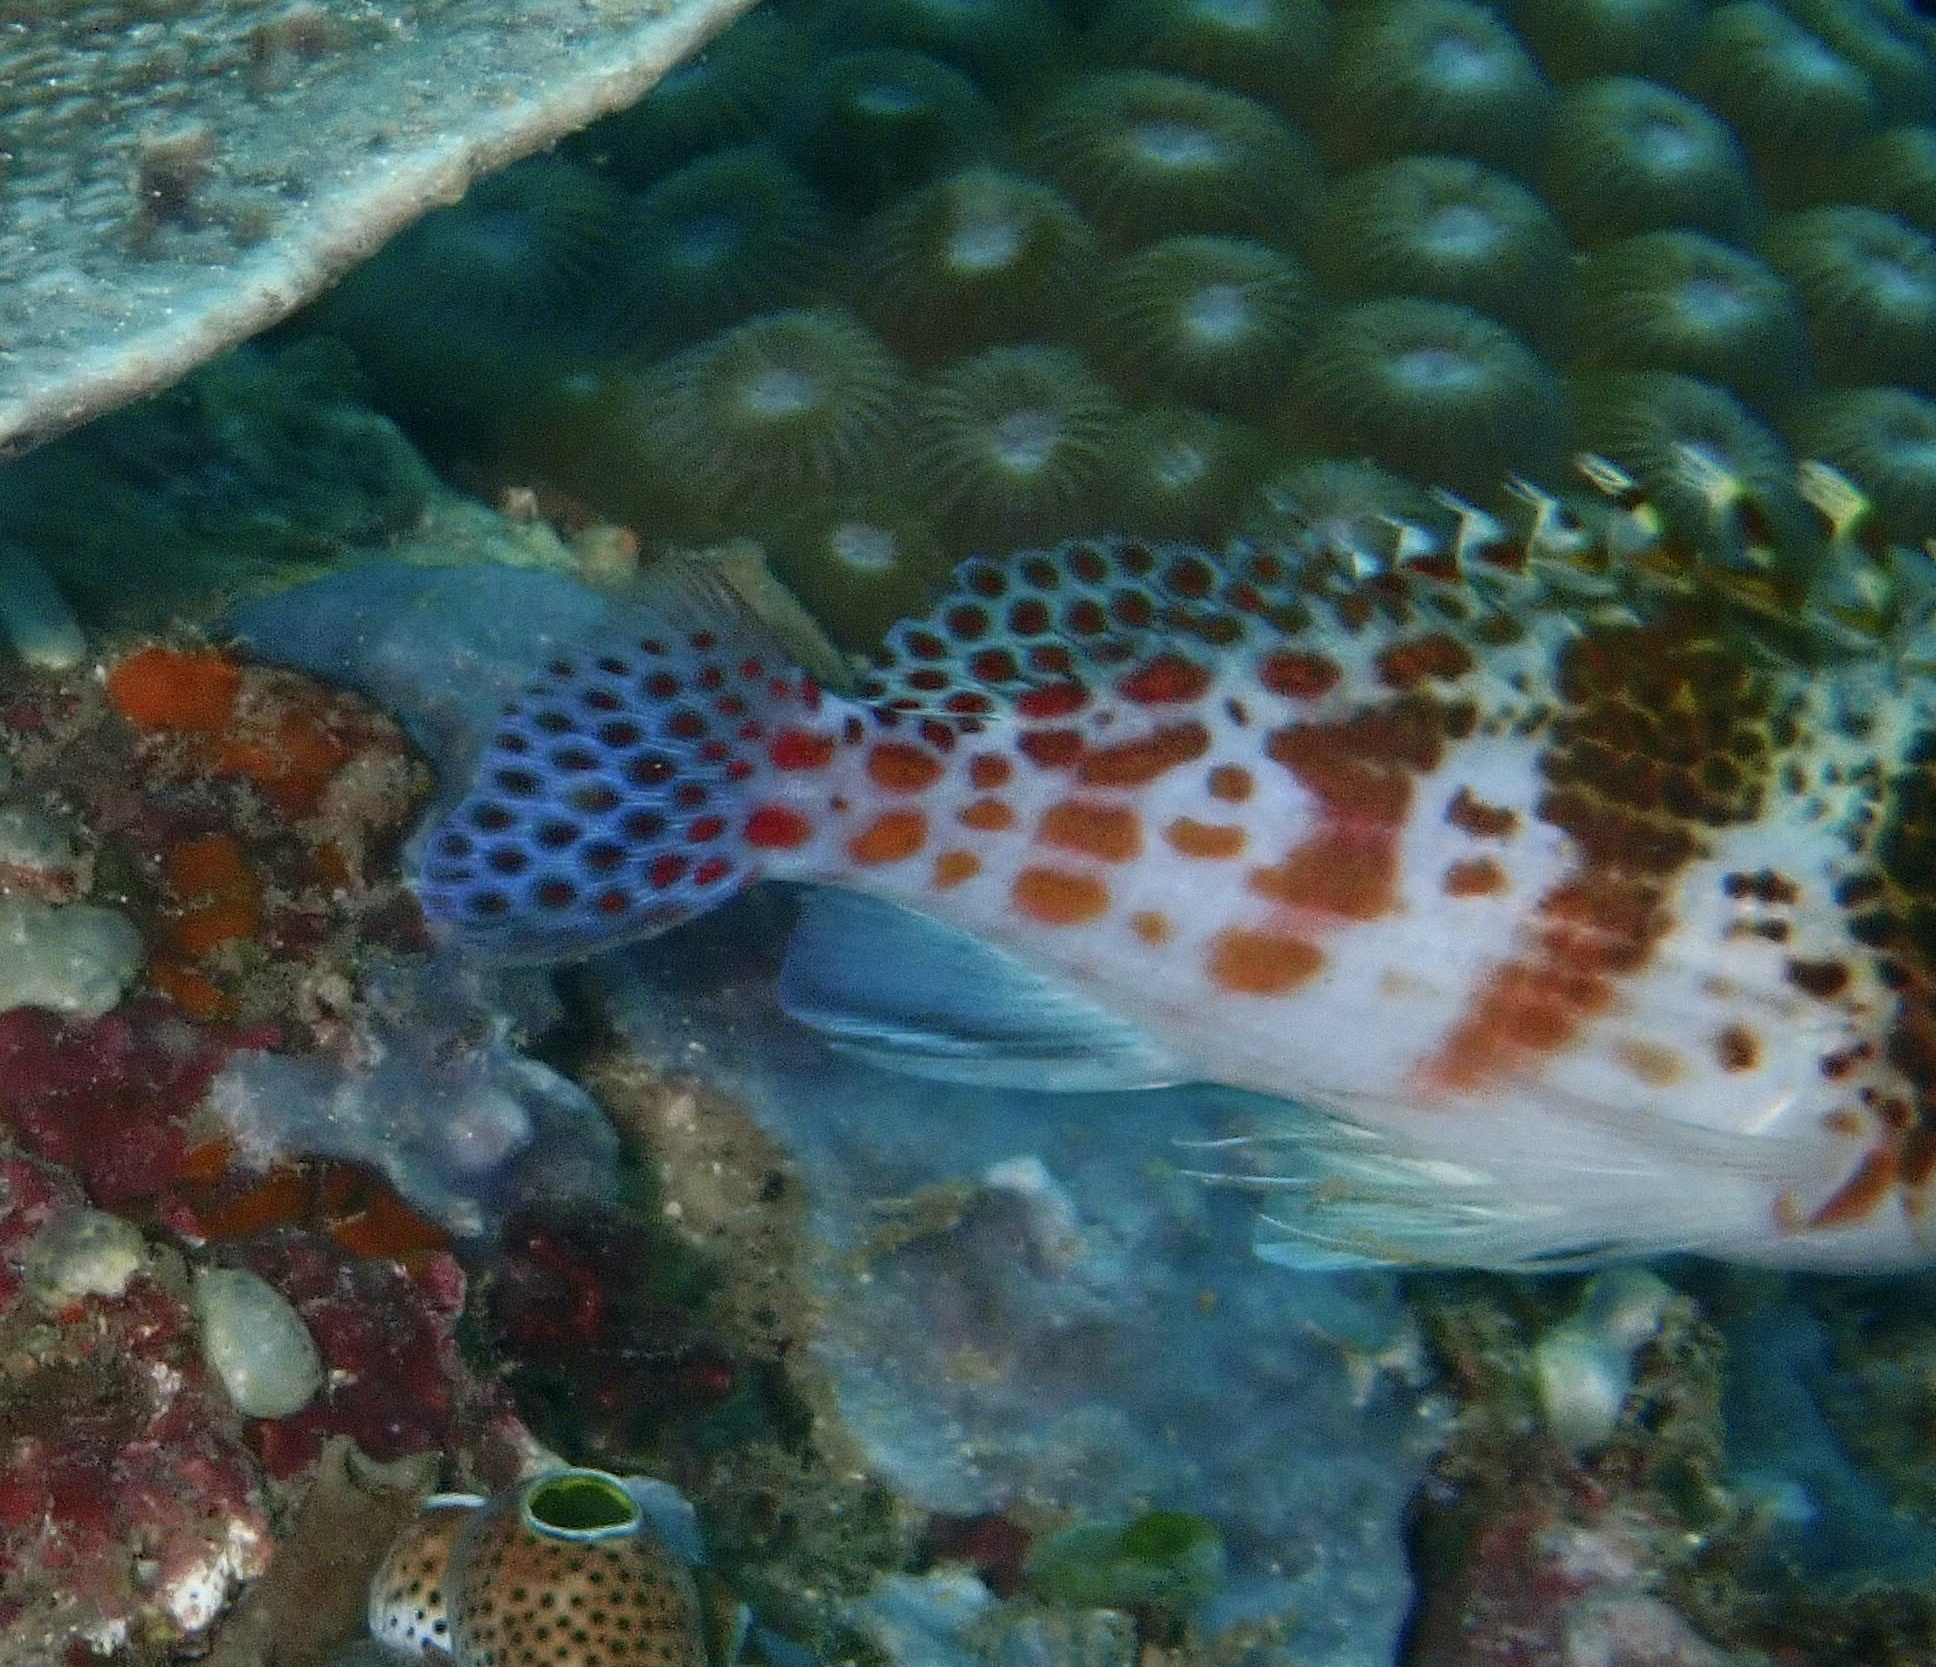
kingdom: Animalia
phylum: Chordata
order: Perciformes
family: Cirrhitidae
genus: Cirrhitichthys
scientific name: Cirrhitichthys falco
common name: Coral hawkfish
